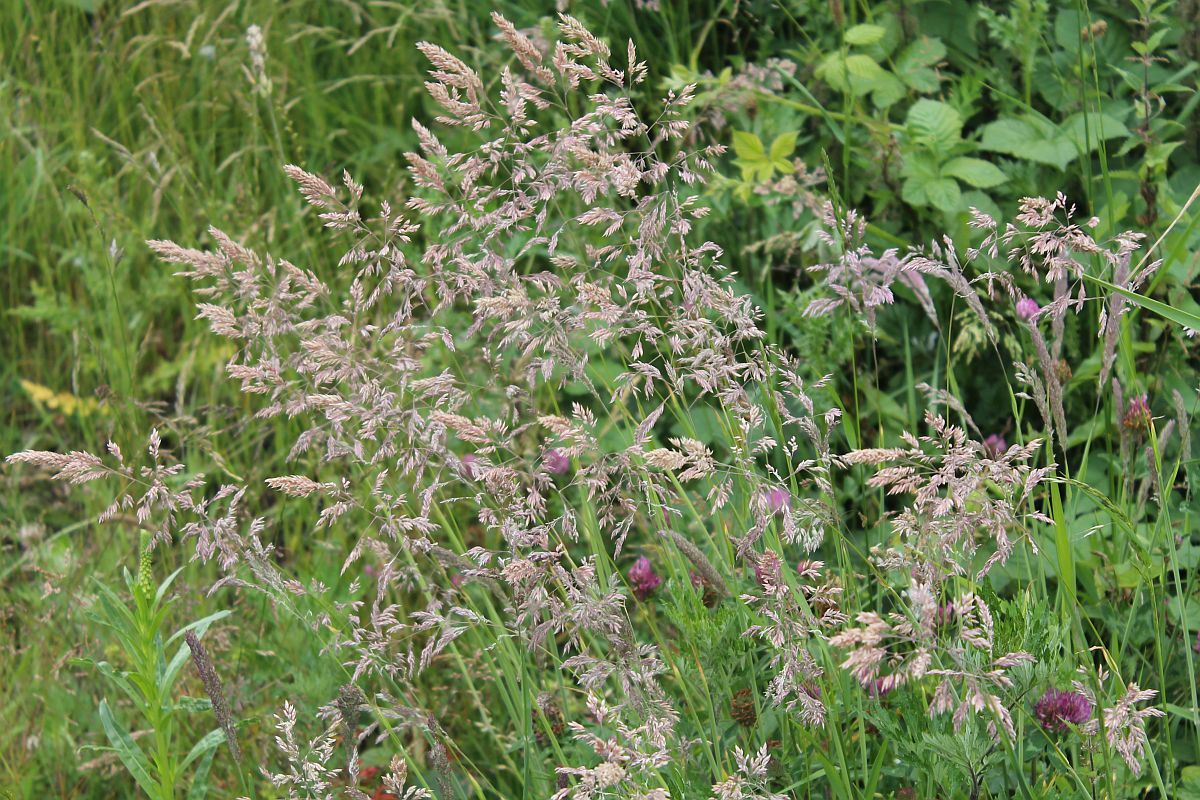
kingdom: Plantae
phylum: Tracheophyta
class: Liliopsida
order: Poales
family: Poaceae
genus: Holcus
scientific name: Holcus lanatus
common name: Yorkshire-fog
